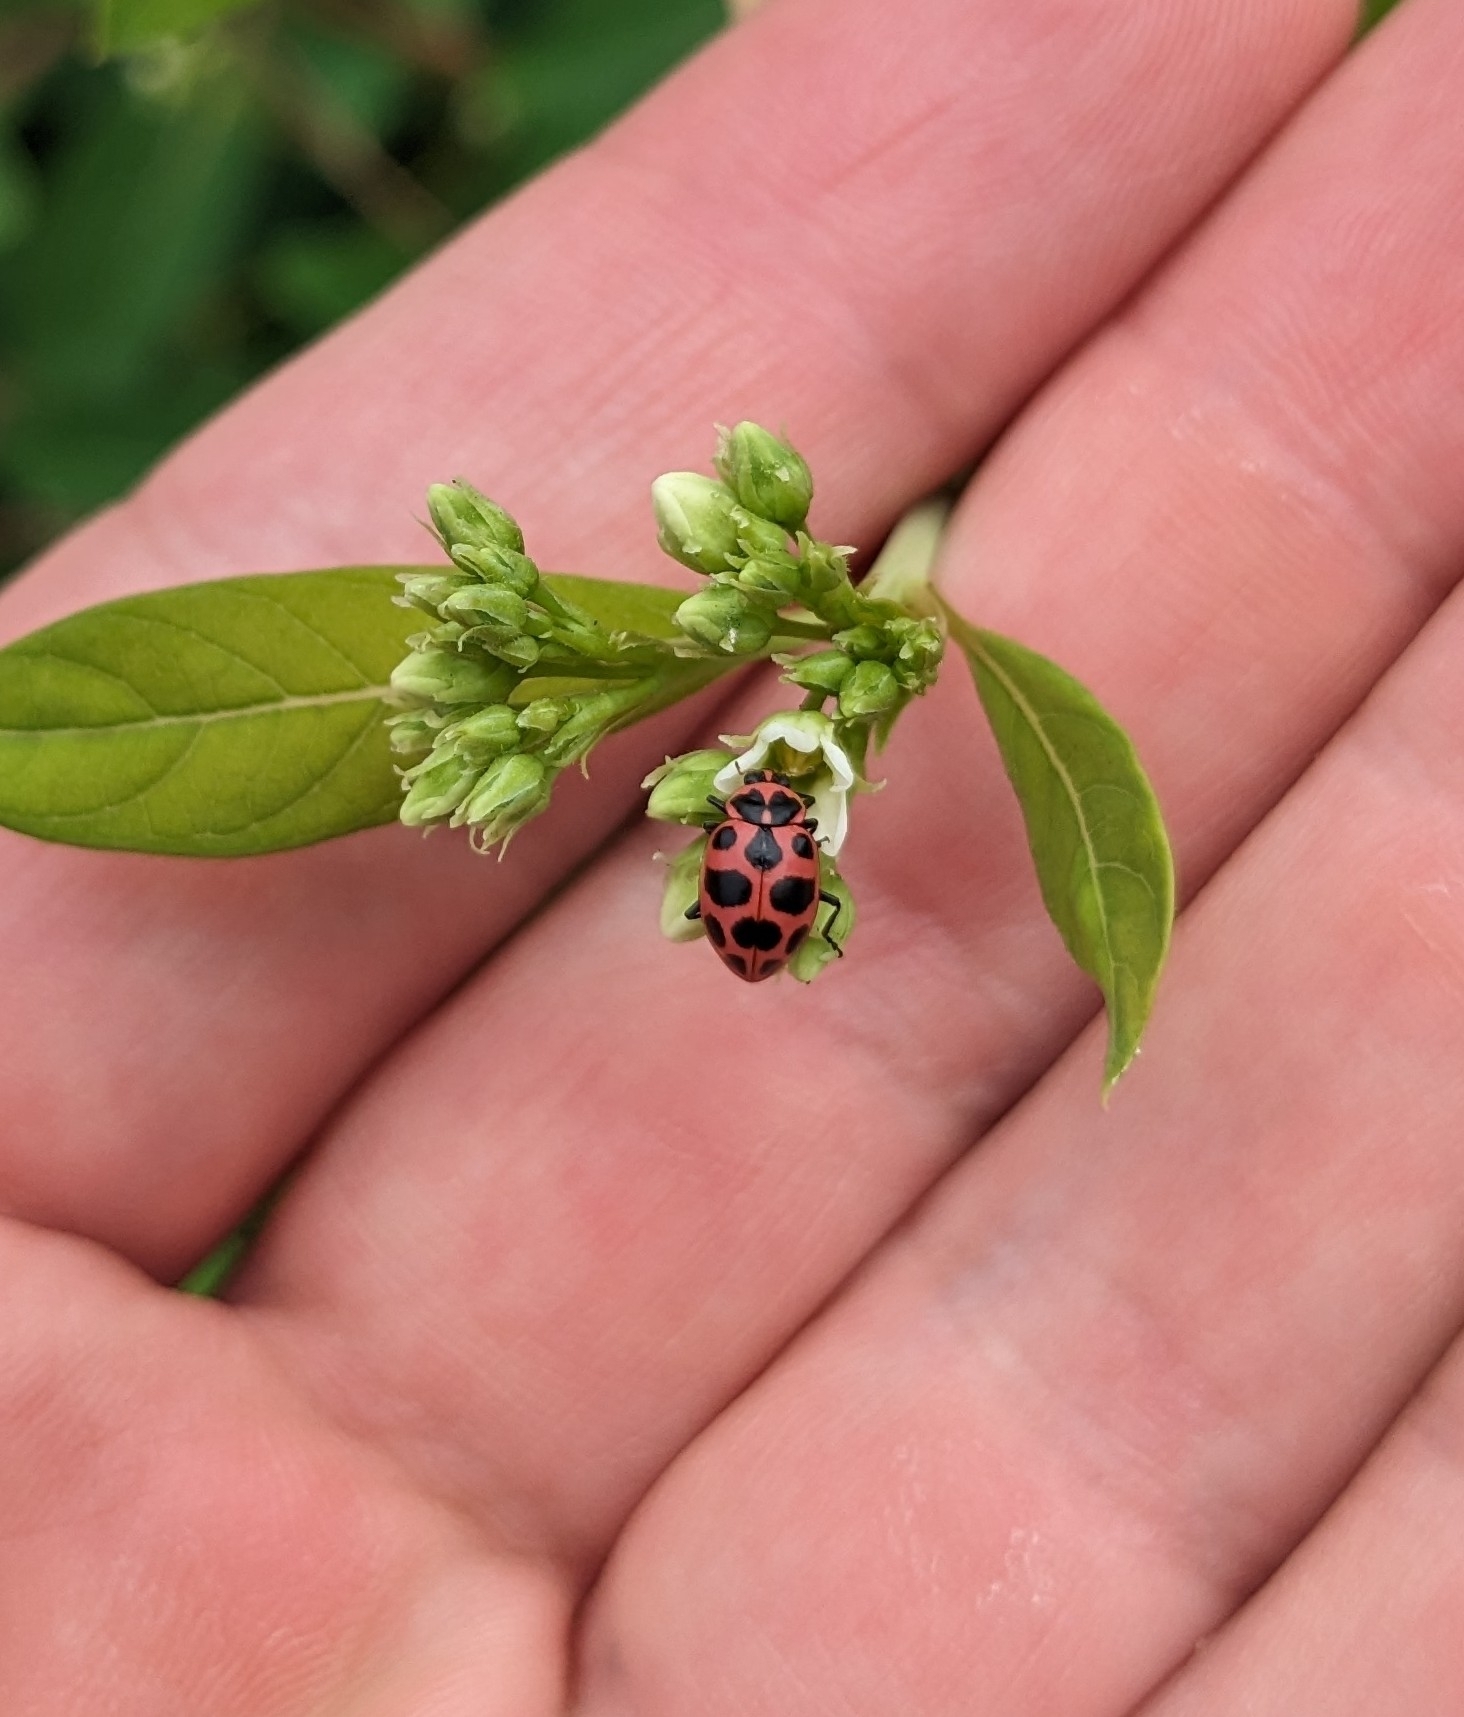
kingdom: Animalia
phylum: Arthropoda
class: Insecta
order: Coleoptera
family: Coccinellidae
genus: Coleomegilla
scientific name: Coleomegilla maculata
